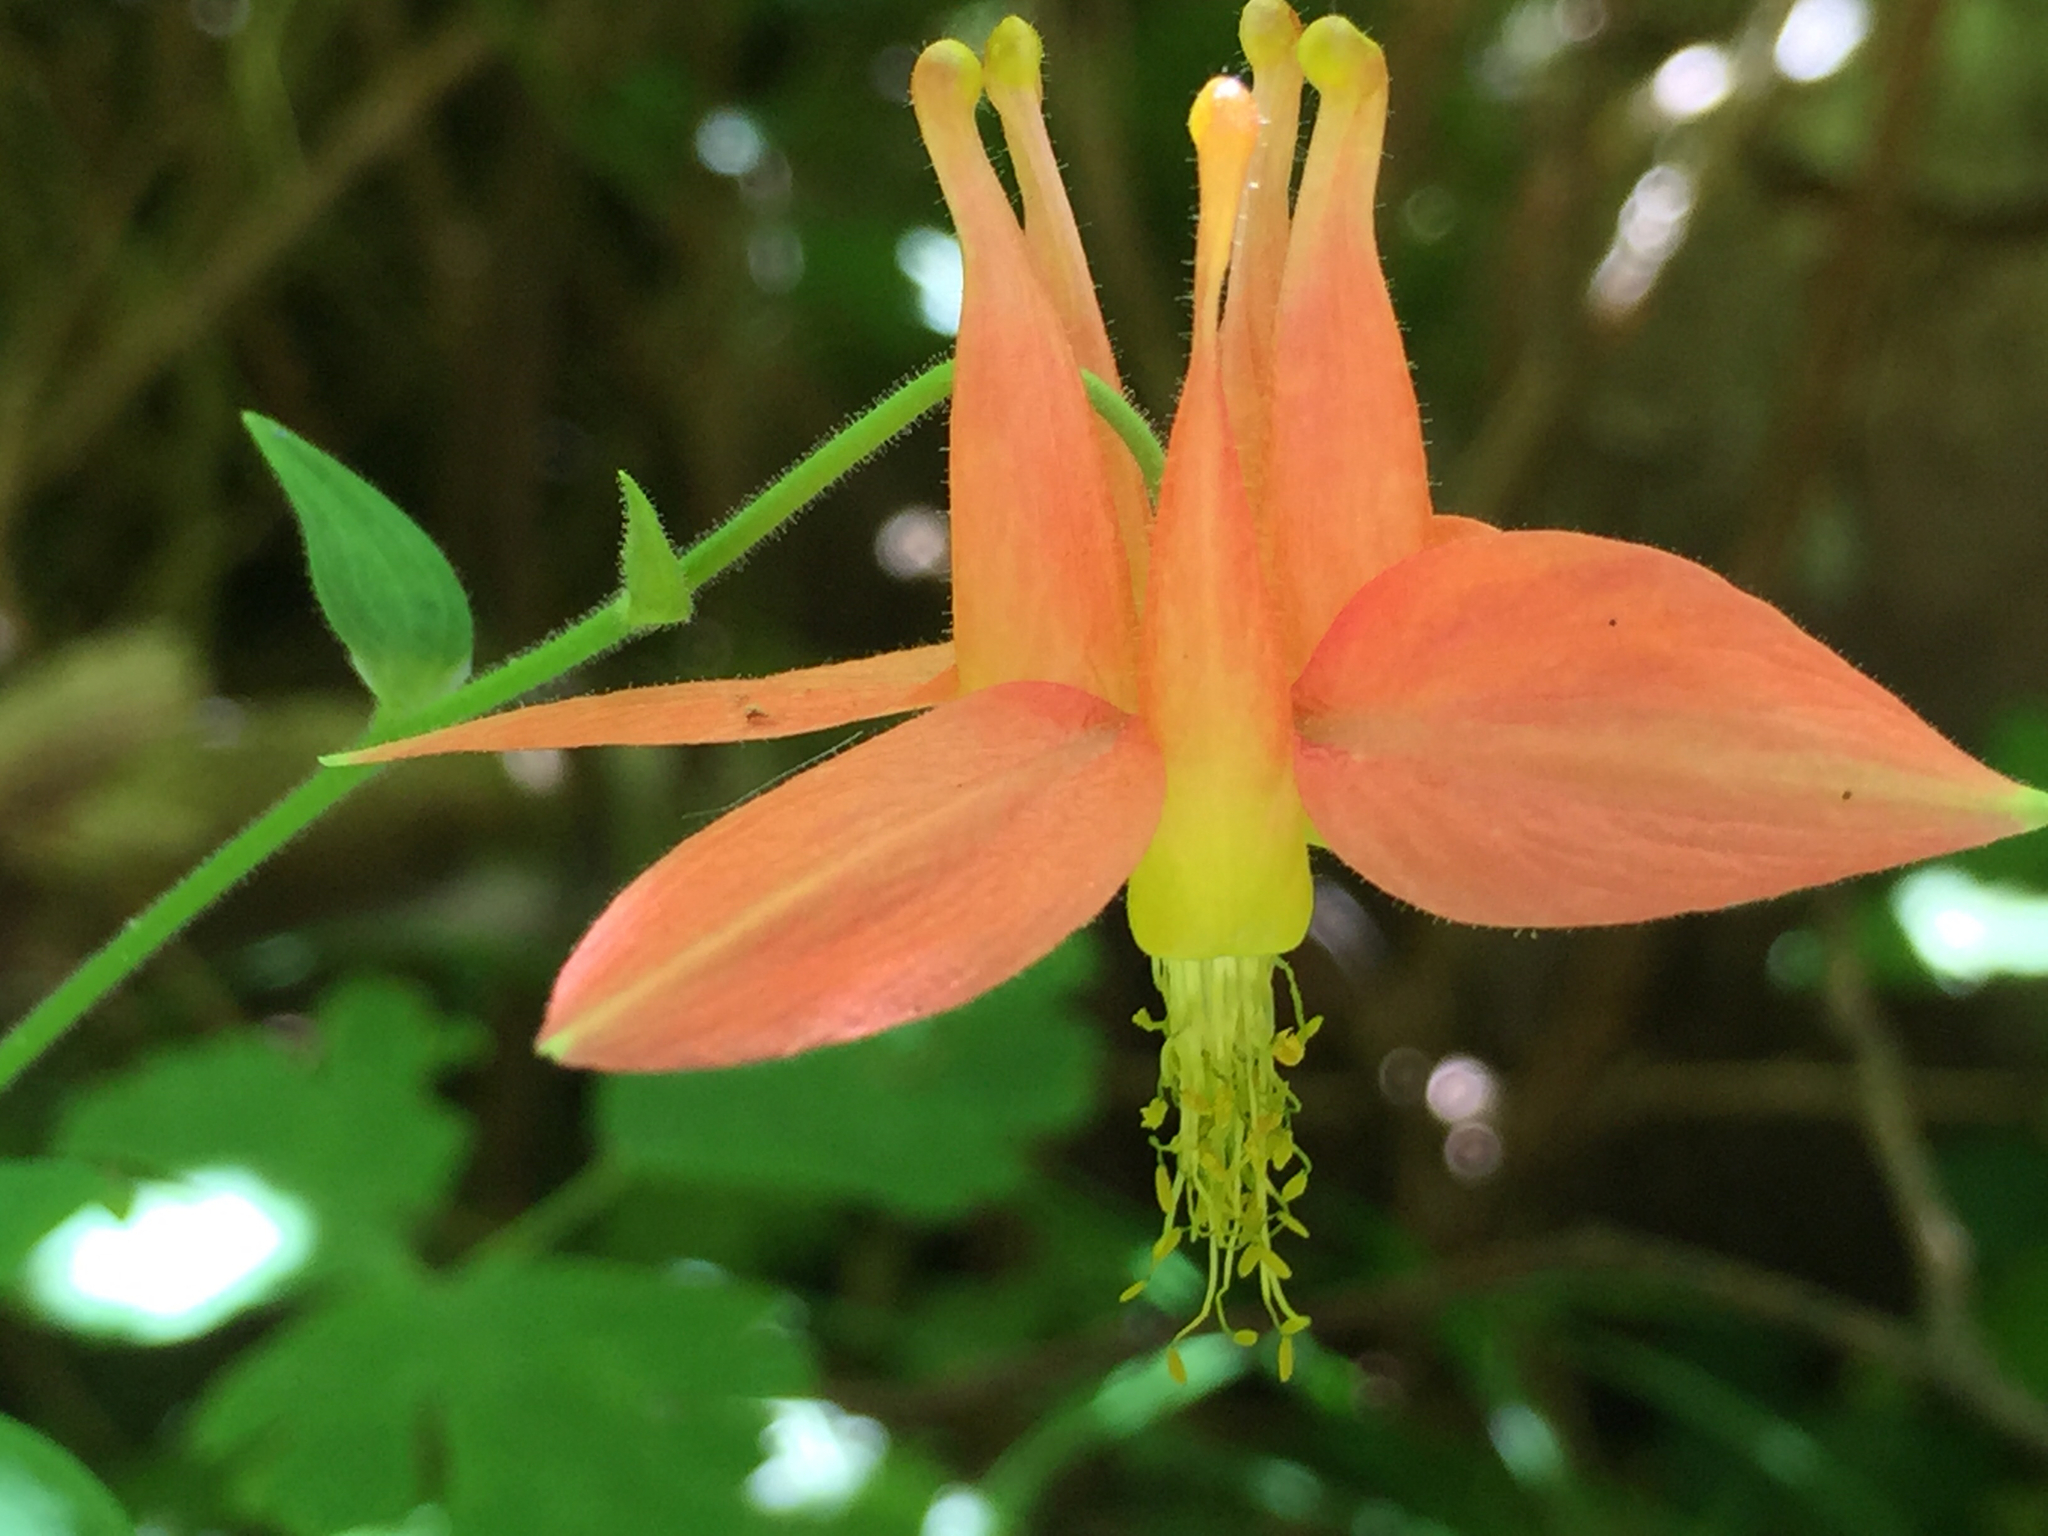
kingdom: Plantae
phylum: Tracheophyta
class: Magnoliopsida
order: Ranunculales
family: Ranunculaceae
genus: Aquilegia
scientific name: Aquilegia formosa
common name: Sitka columbine
